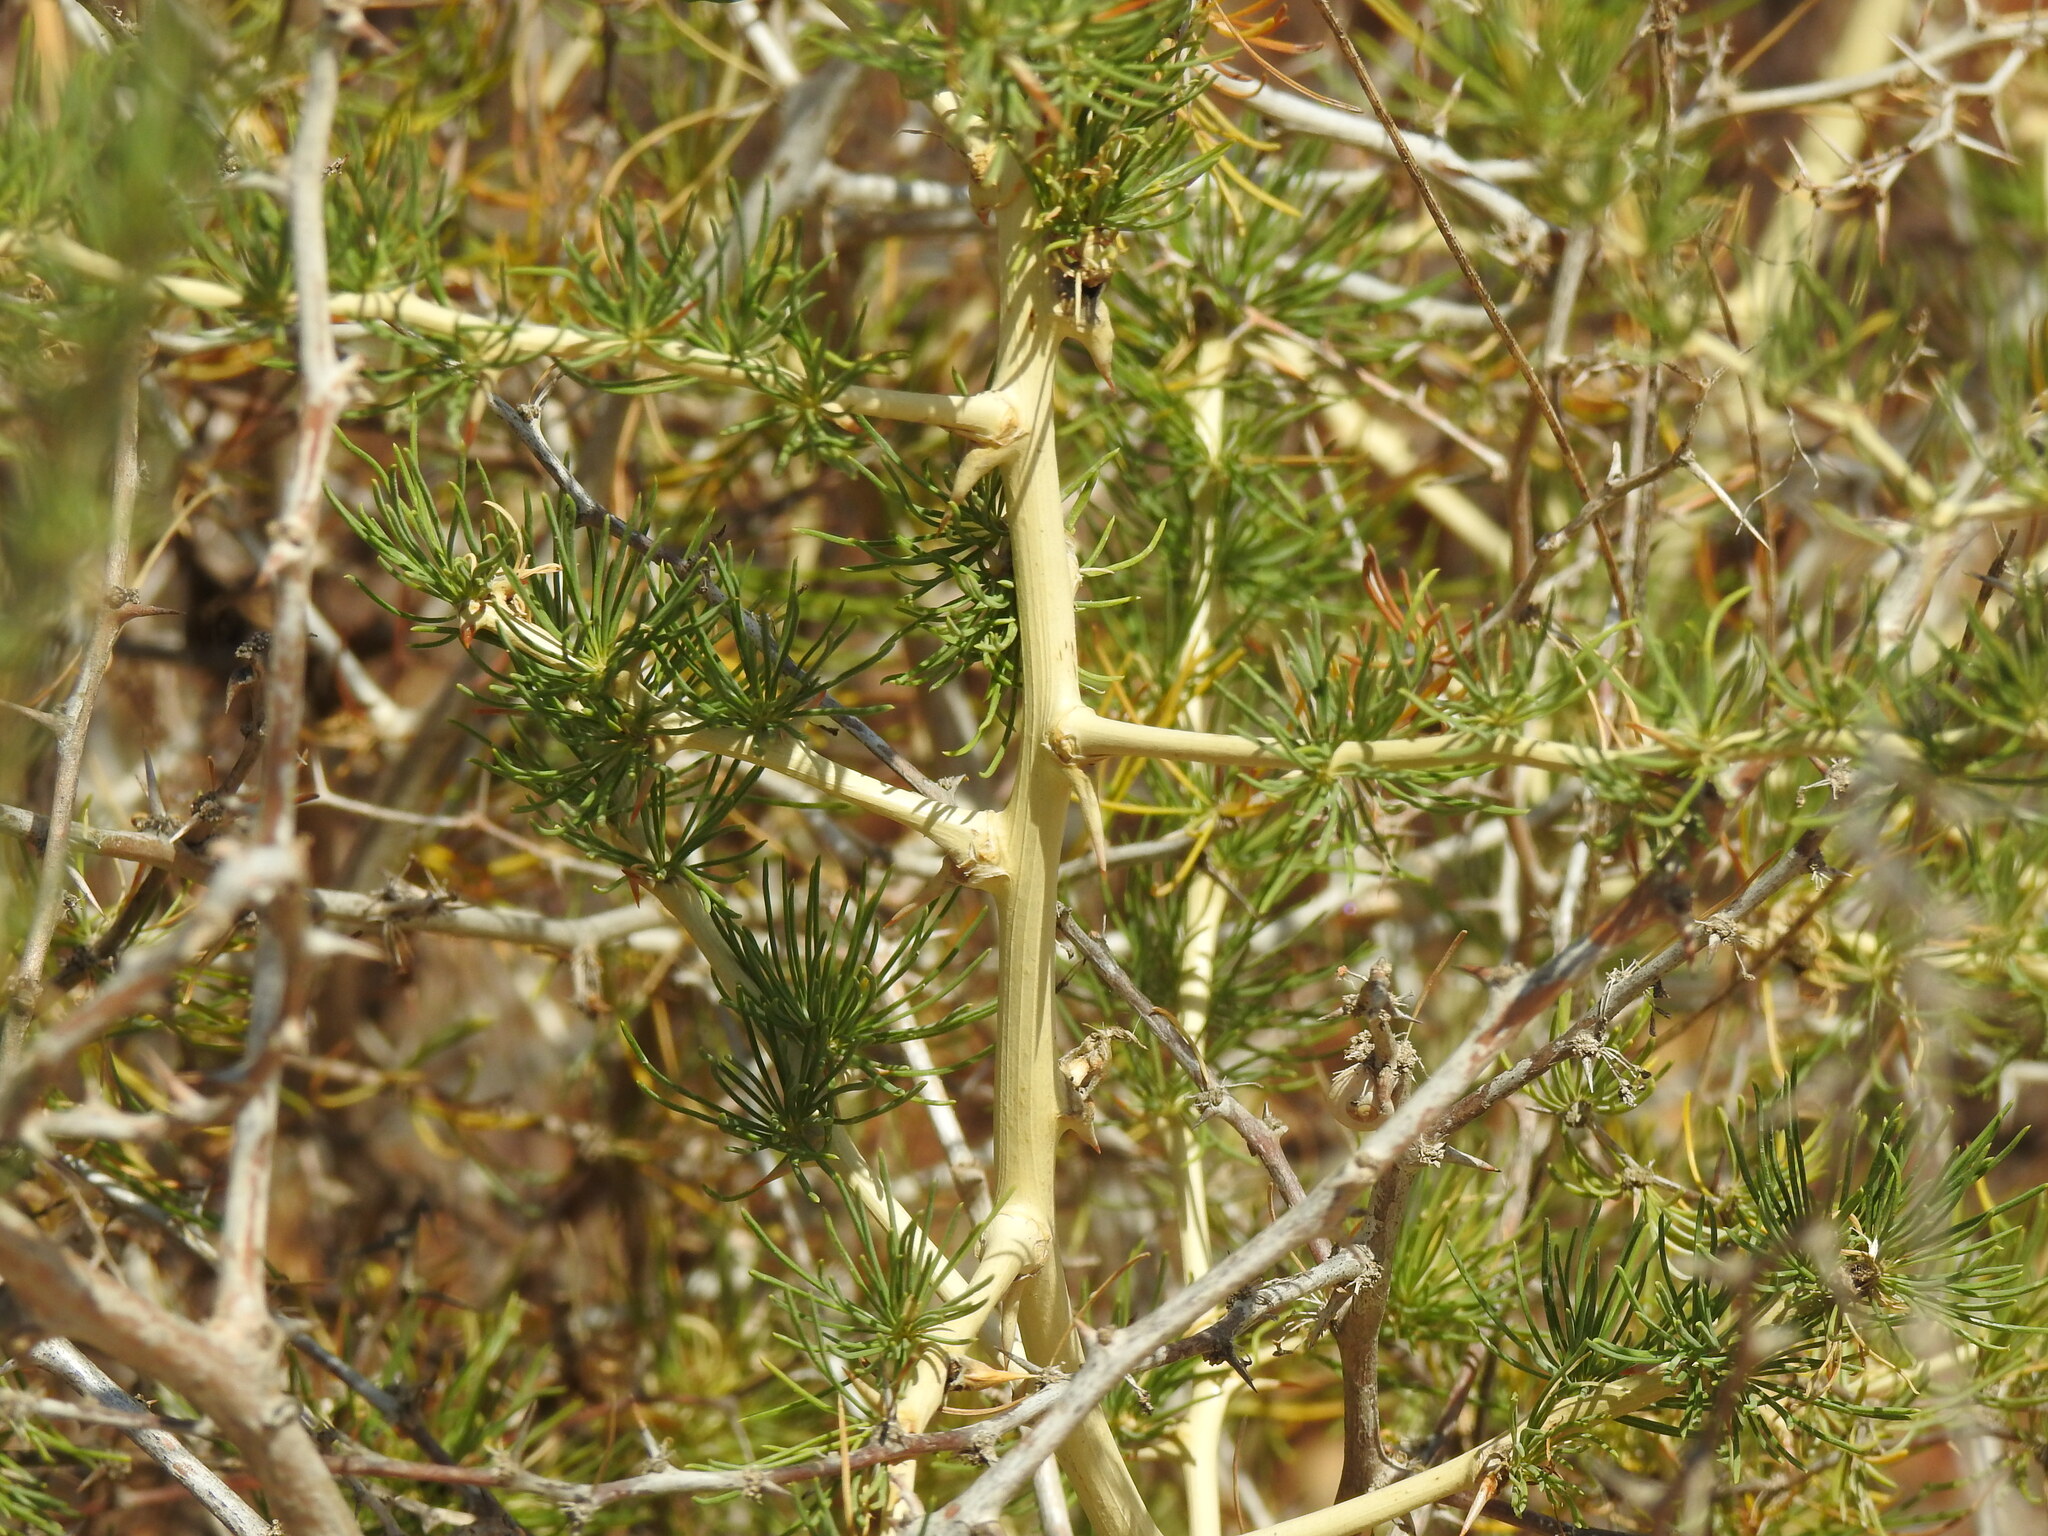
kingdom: Plantae
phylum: Tracheophyta
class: Liliopsida
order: Asparagales
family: Asparagaceae
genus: Asparagus
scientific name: Asparagus albus
